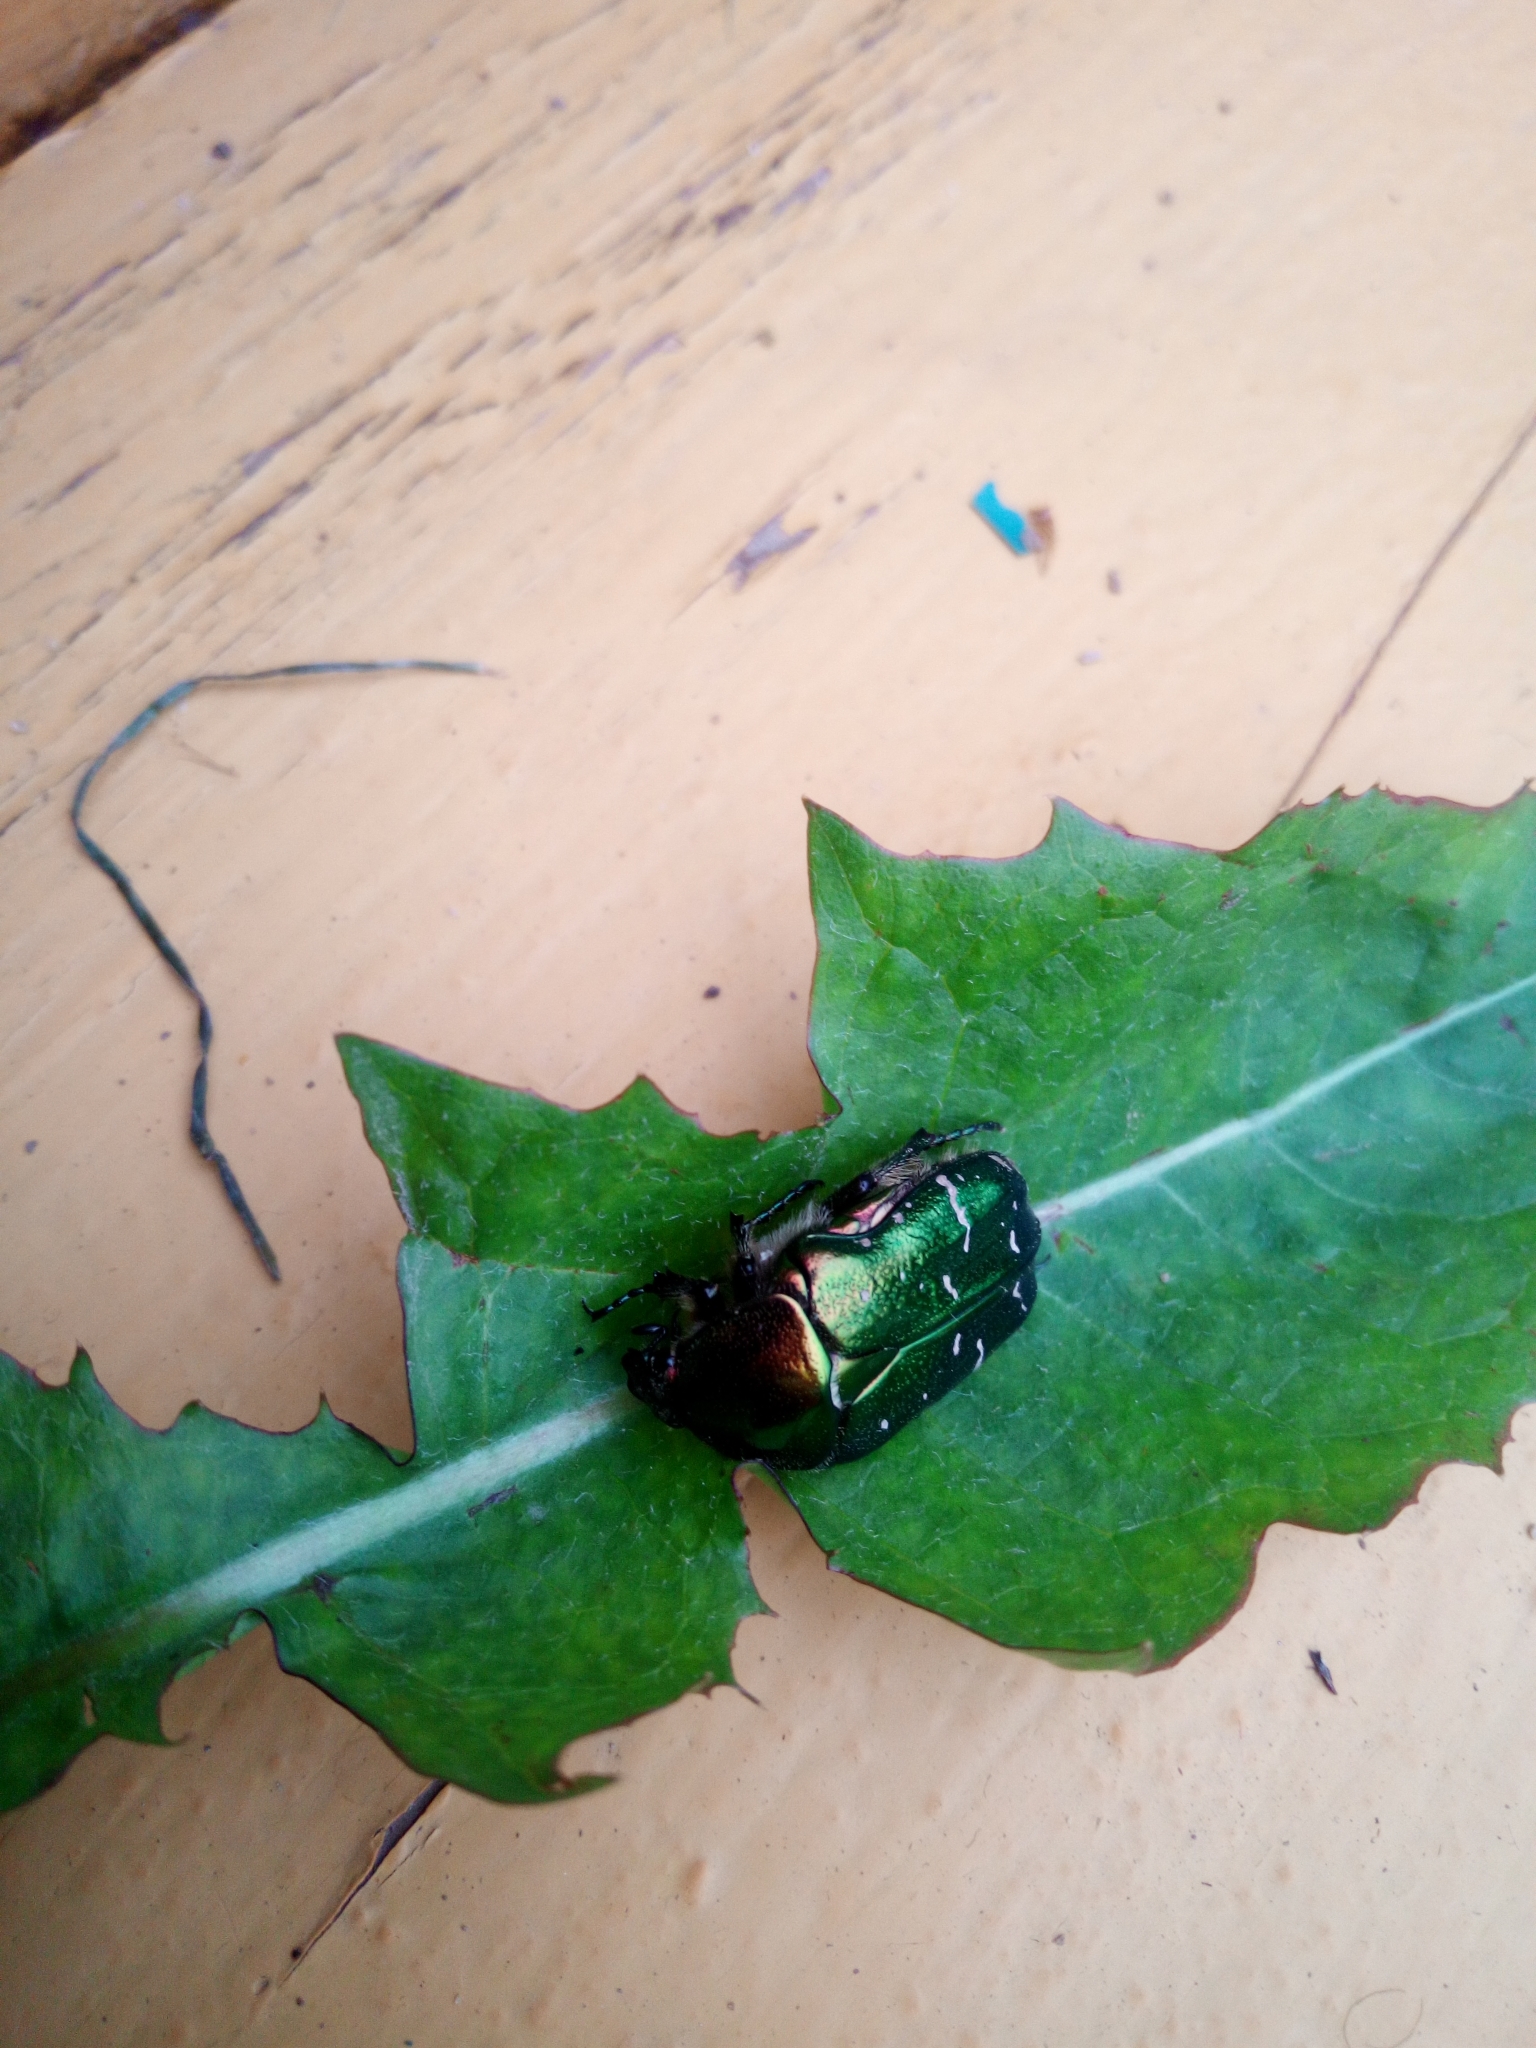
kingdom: Animalia
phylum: Arthropoda
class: Insecta
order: Coleoptera
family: Scarabaeidae
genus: Cetonia
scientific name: Cetonia aurata
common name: Rose chafer
